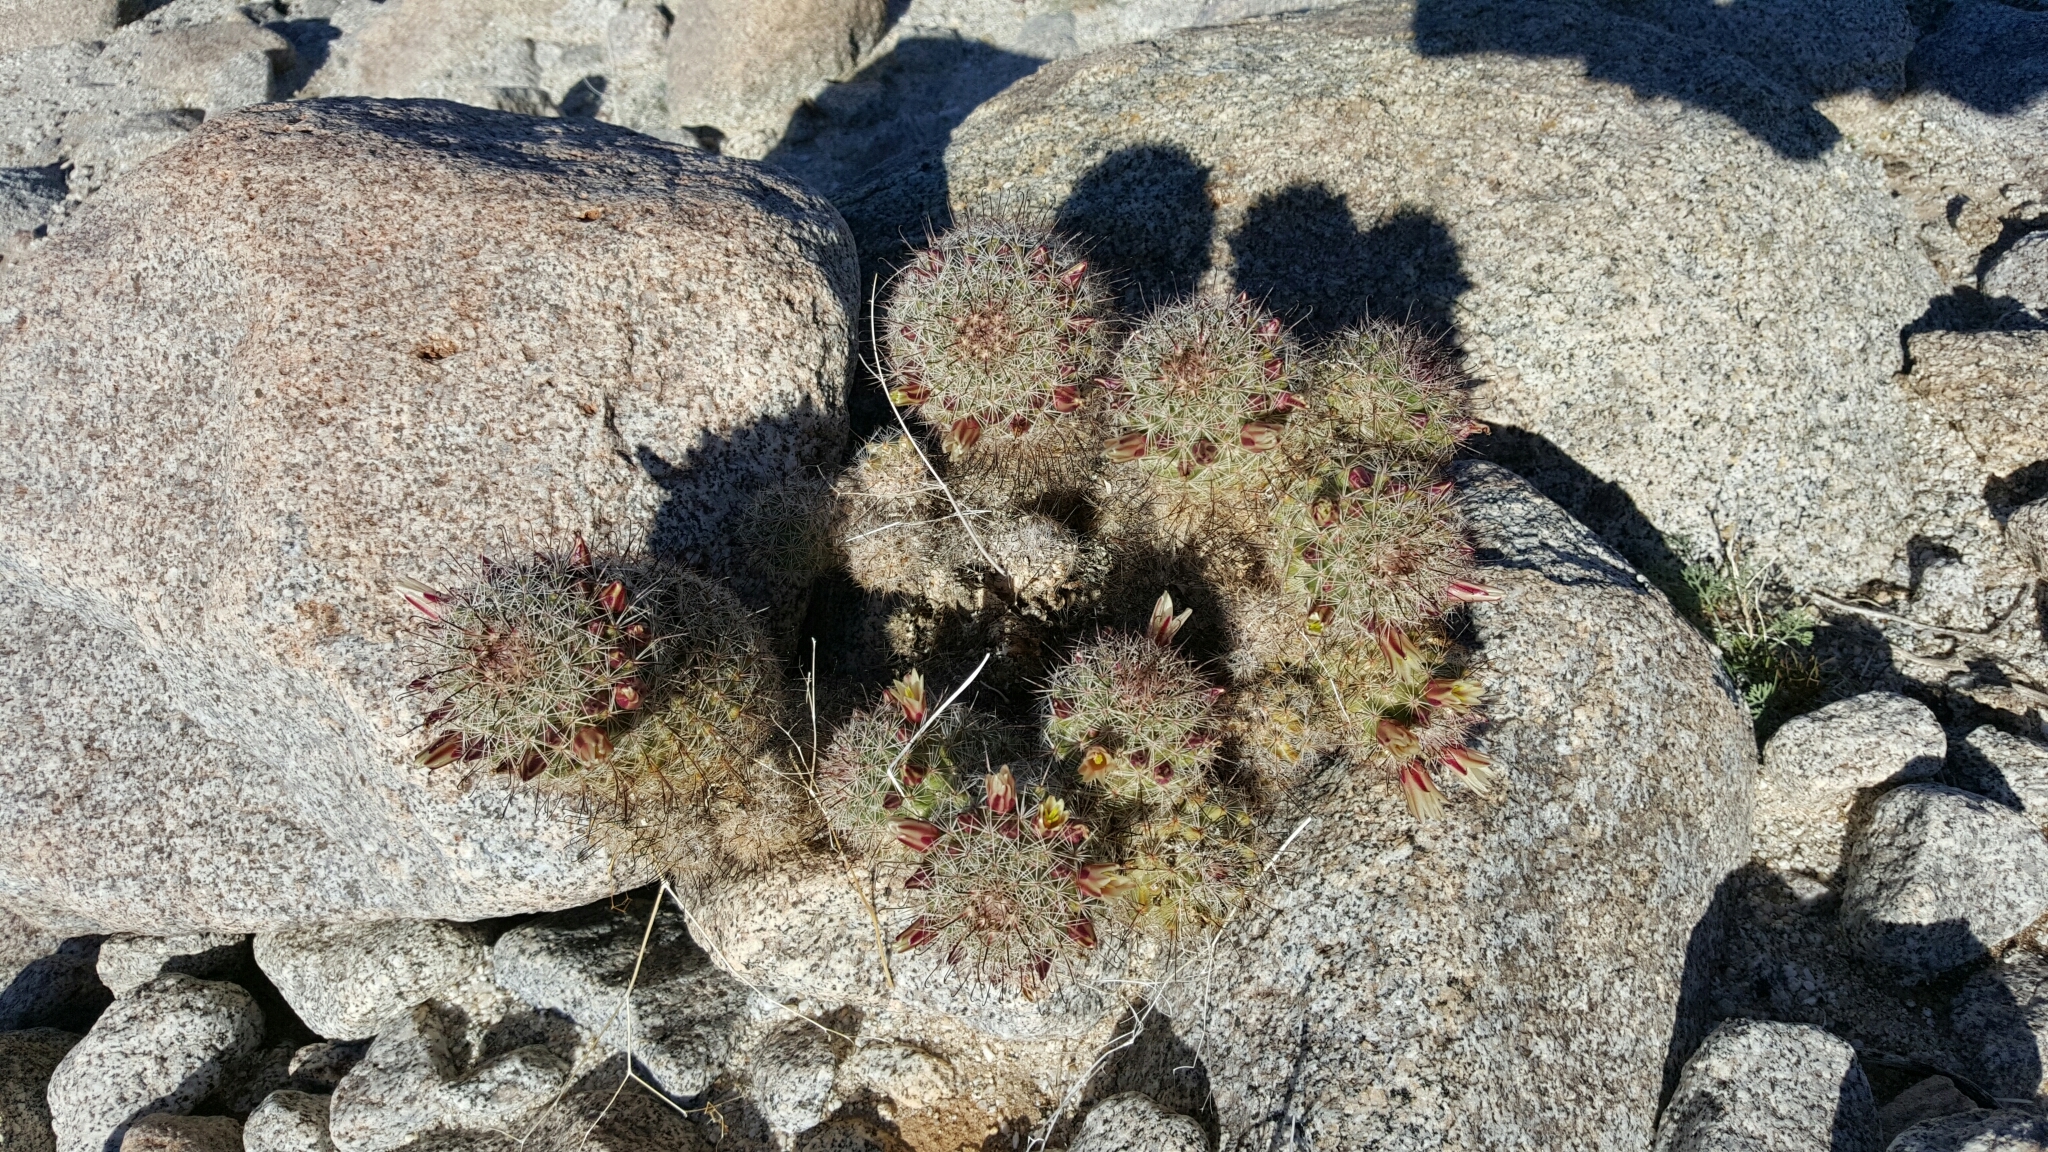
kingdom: Plantae
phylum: Tracheophyta
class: Magnoliopsida
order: Caryophyllales
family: Cactaceae
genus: Cochemiea
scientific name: Cochemiea dioica
